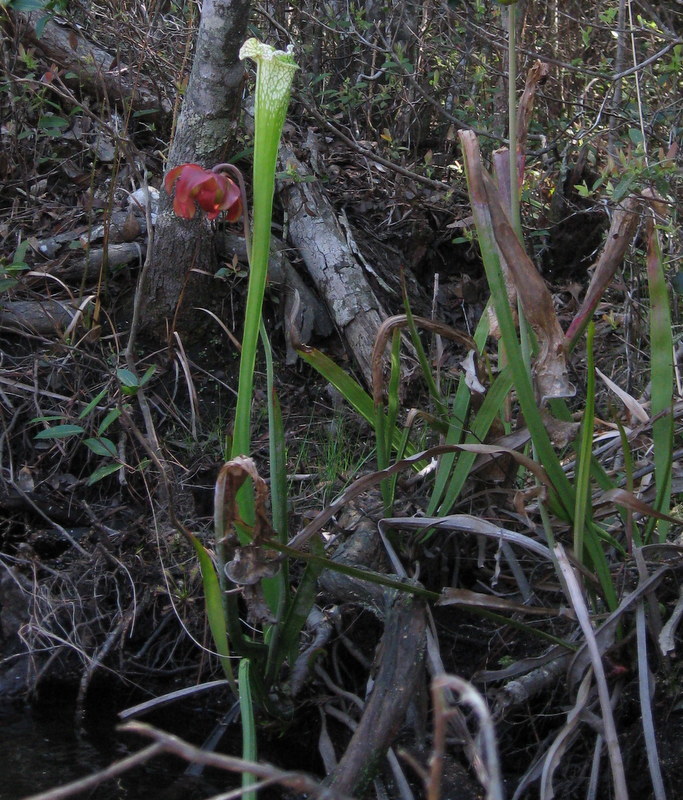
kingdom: Plantae
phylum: Tracheophyta
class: Magnoliopsida
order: Ericales
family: Sarraceniaceae
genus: Sarracenia
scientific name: Sarracenia leucophylla
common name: Purple trumpetleaf
